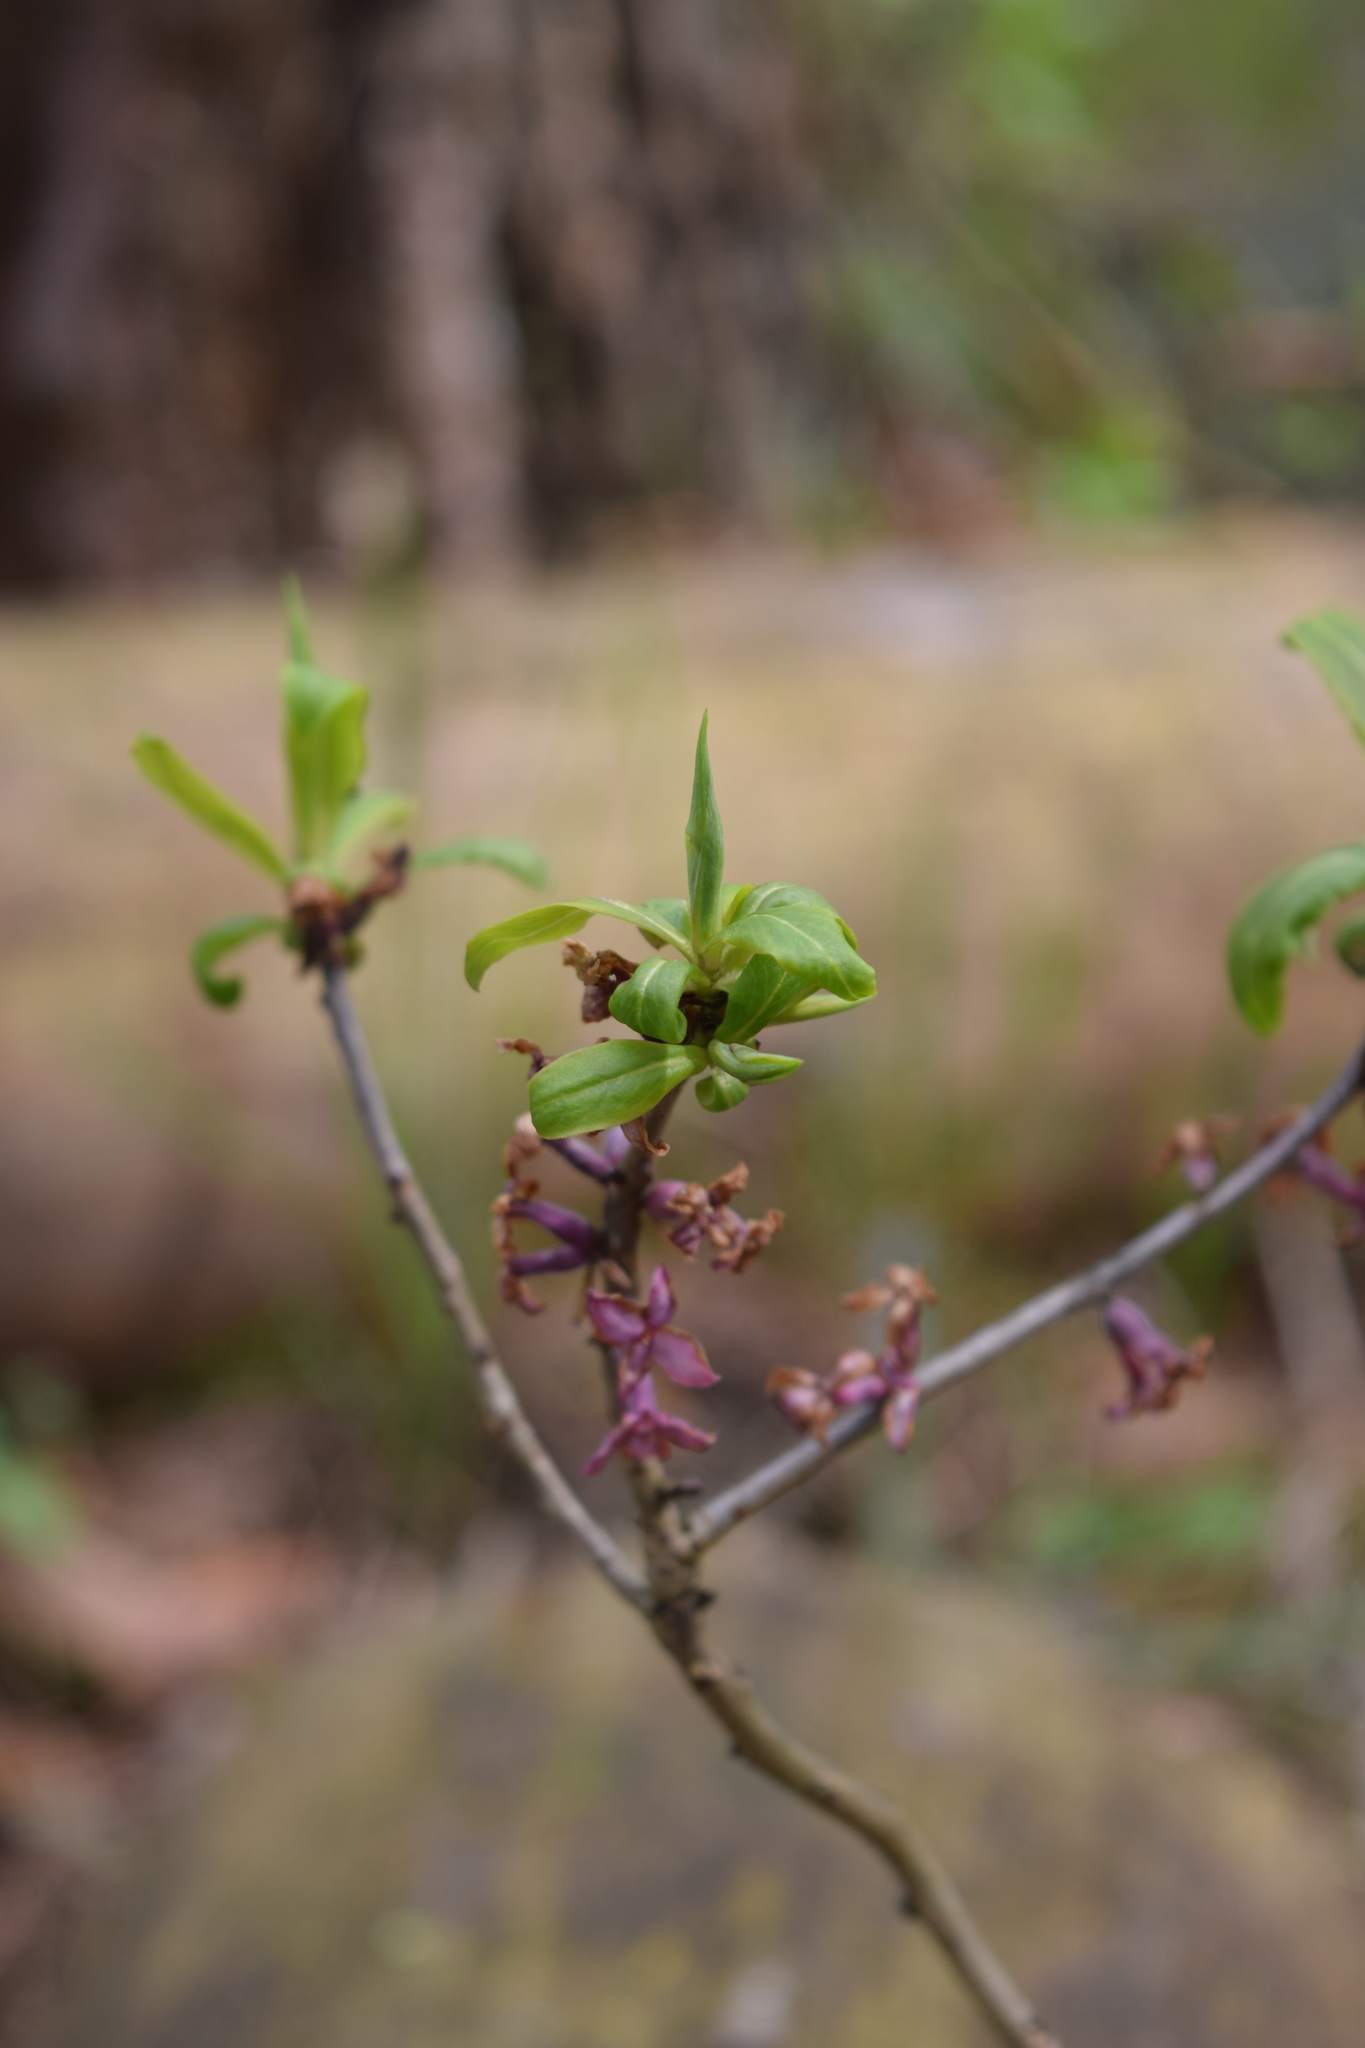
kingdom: Plantae
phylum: Tracheophyta
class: Magnoliopsida
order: Malvales
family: Thymelaeaceae
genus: Daphne
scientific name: Daphne mezereum
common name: Mezereon
